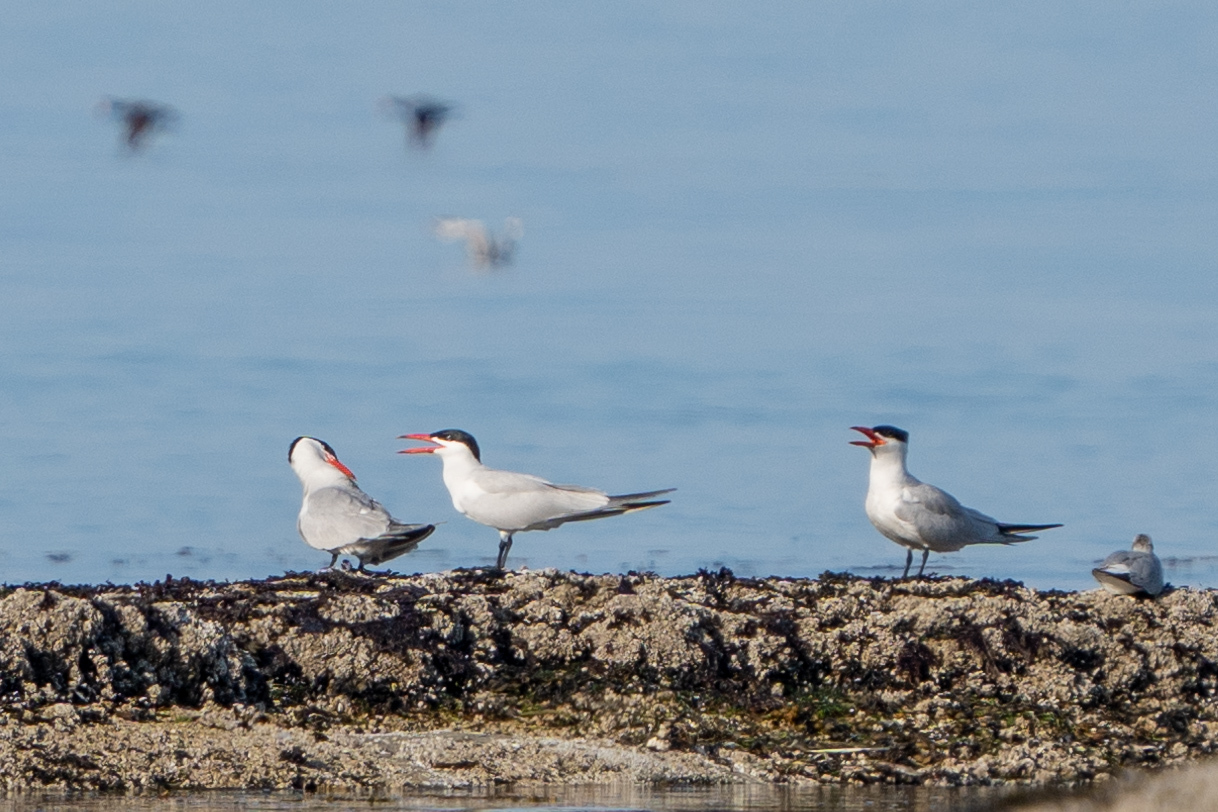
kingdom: Animalia
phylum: Chordata
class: Aves
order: Charadriiformes
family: Laridae
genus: Hydroprogne
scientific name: Hydroprogne caspia
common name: Caspian tern
